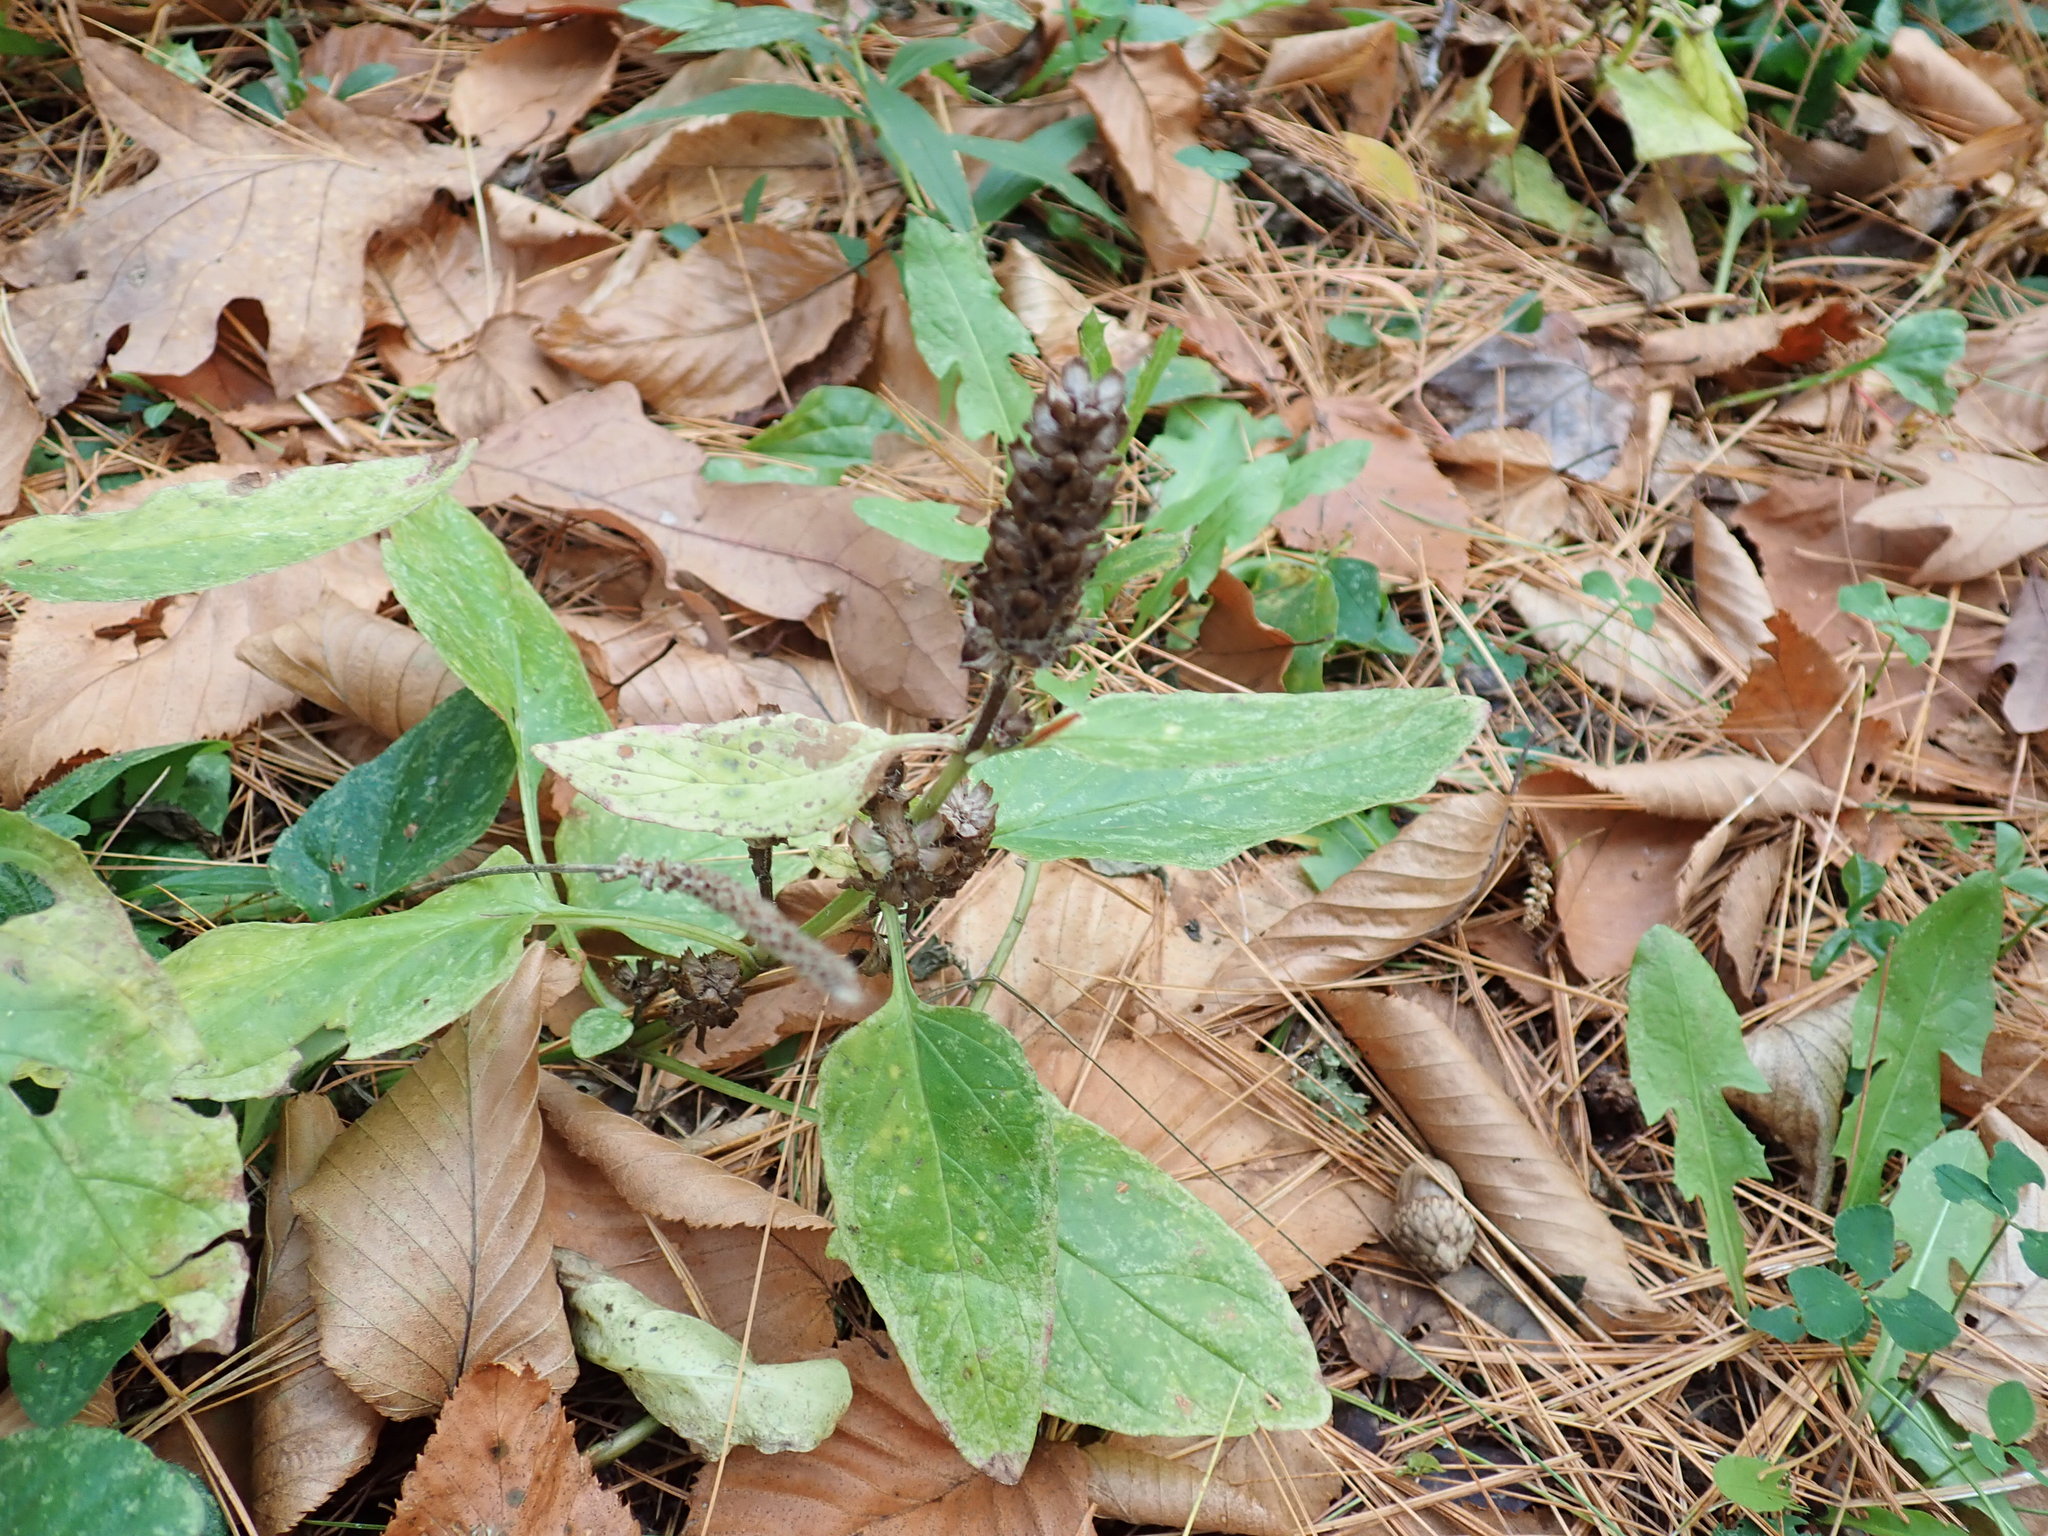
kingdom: Plantae
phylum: Tracheophyta
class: Magnoliopsida
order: Lamiales
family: Lamiaceae
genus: Prunella
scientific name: Prunella vulgaris
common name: Heal-all
